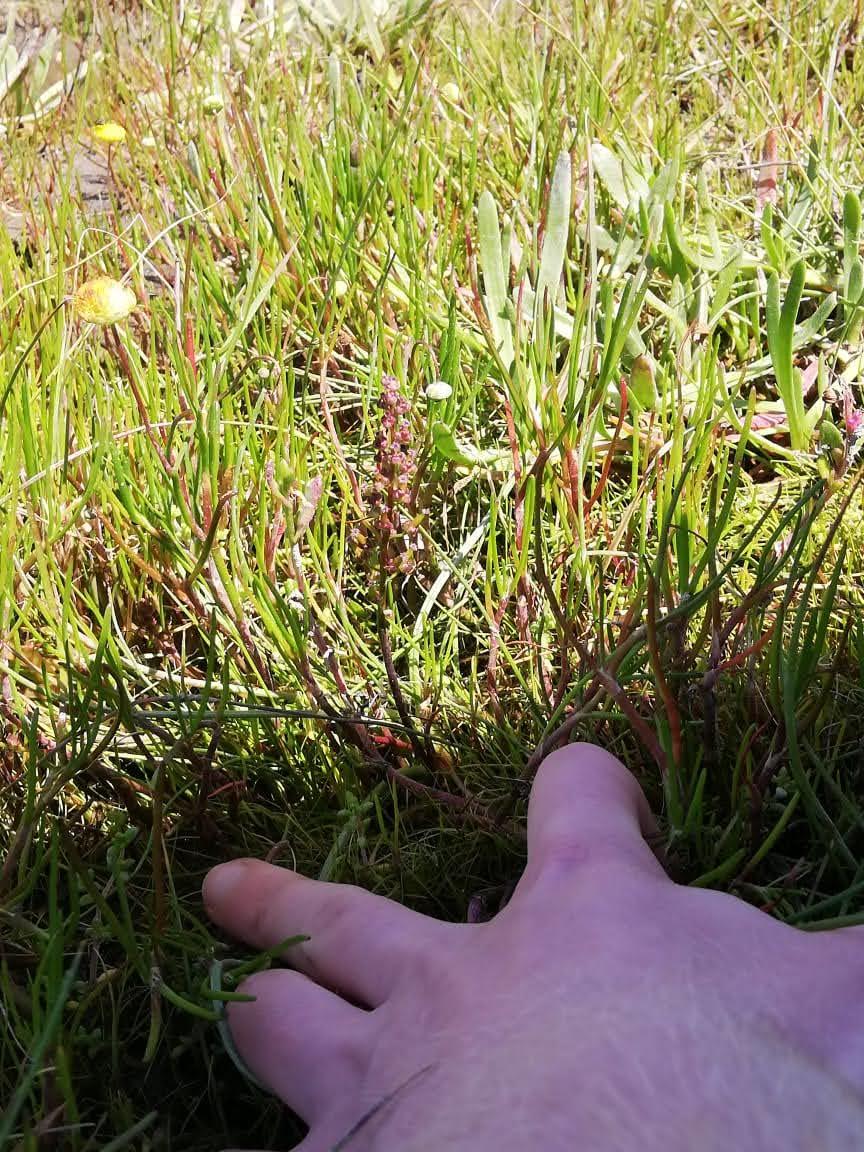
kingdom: Plantae
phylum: Tracheophyta
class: Liliopsida
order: Alismatales
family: Juncaginaceae
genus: Triglochin
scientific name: Triglochin bulbosa
